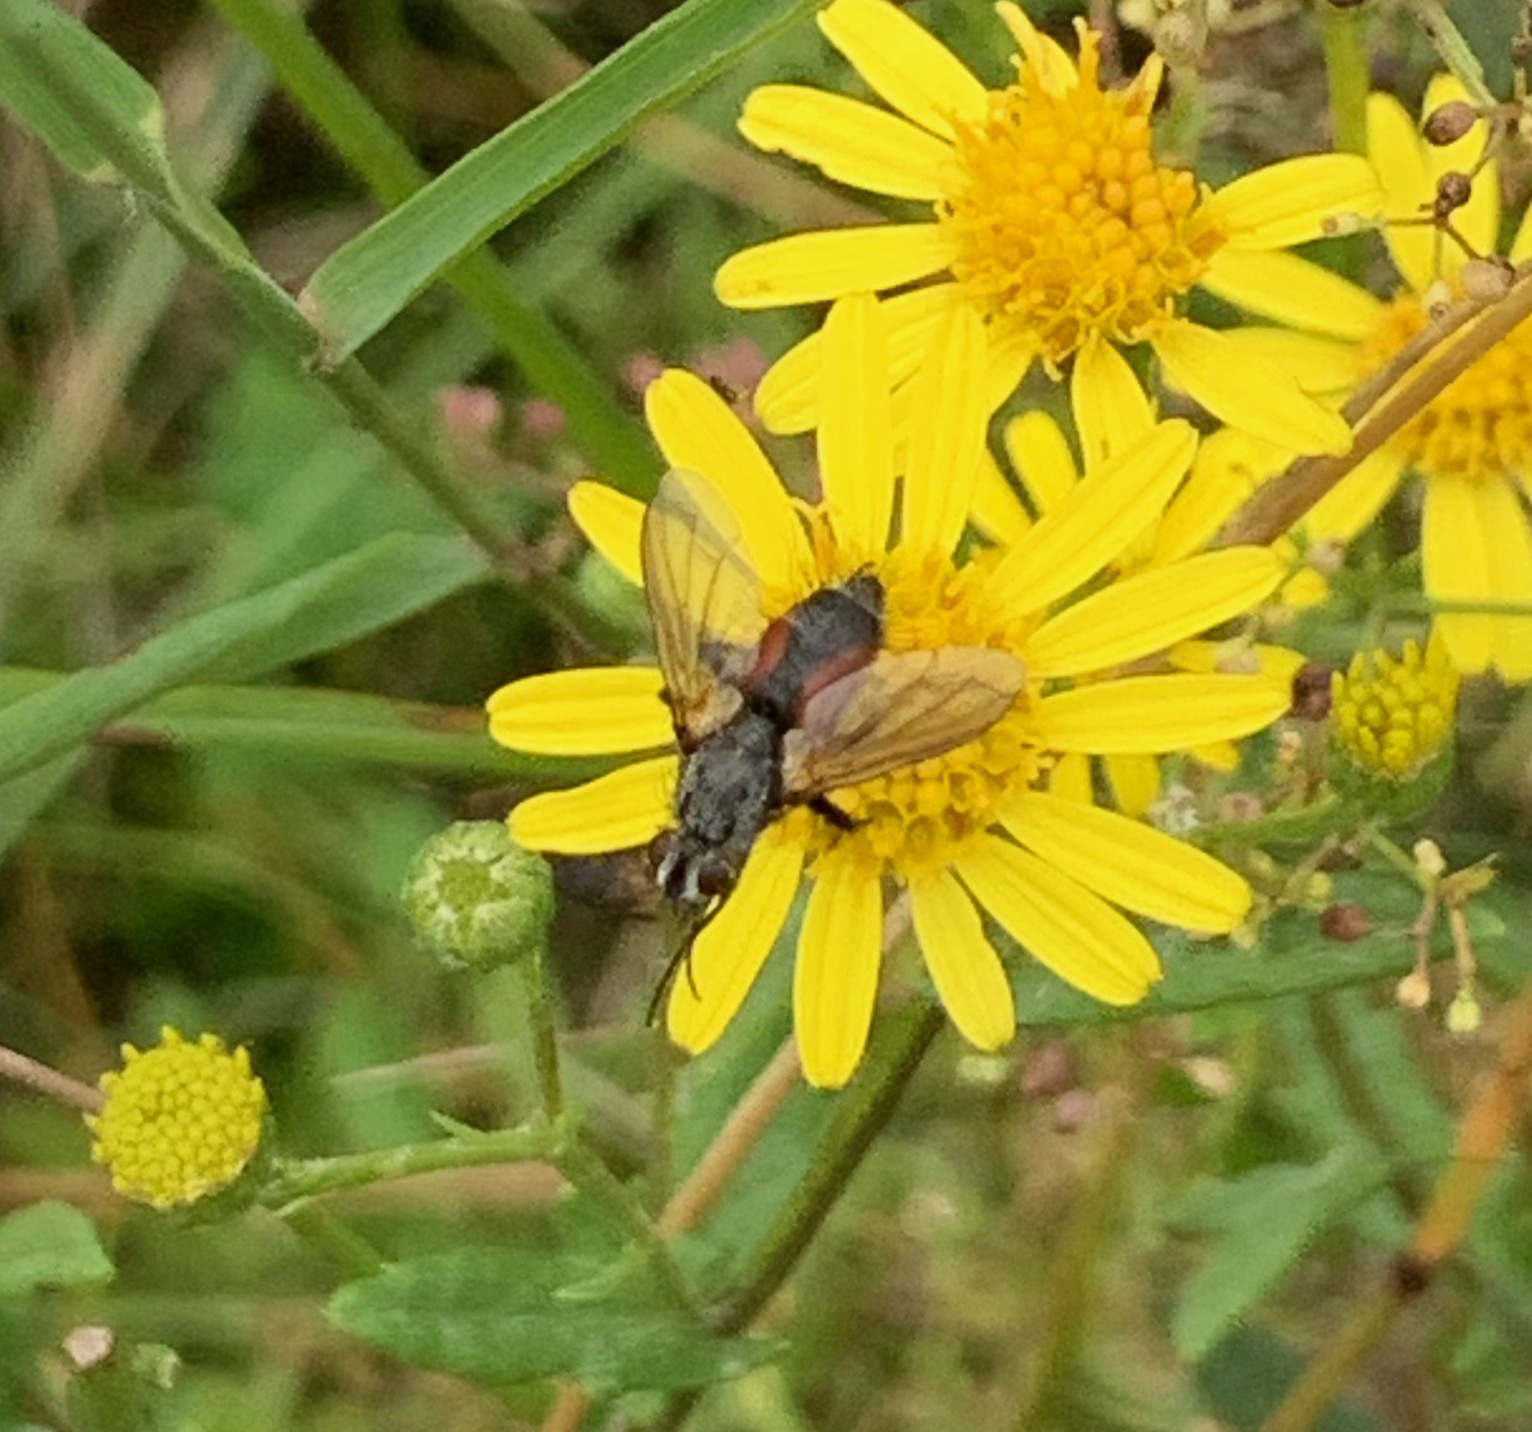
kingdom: Animalia
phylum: Arthropoda
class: Insecta
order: Diptera
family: Tachinidae
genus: Eriothrix
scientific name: Eriothrix rufomaculatus
